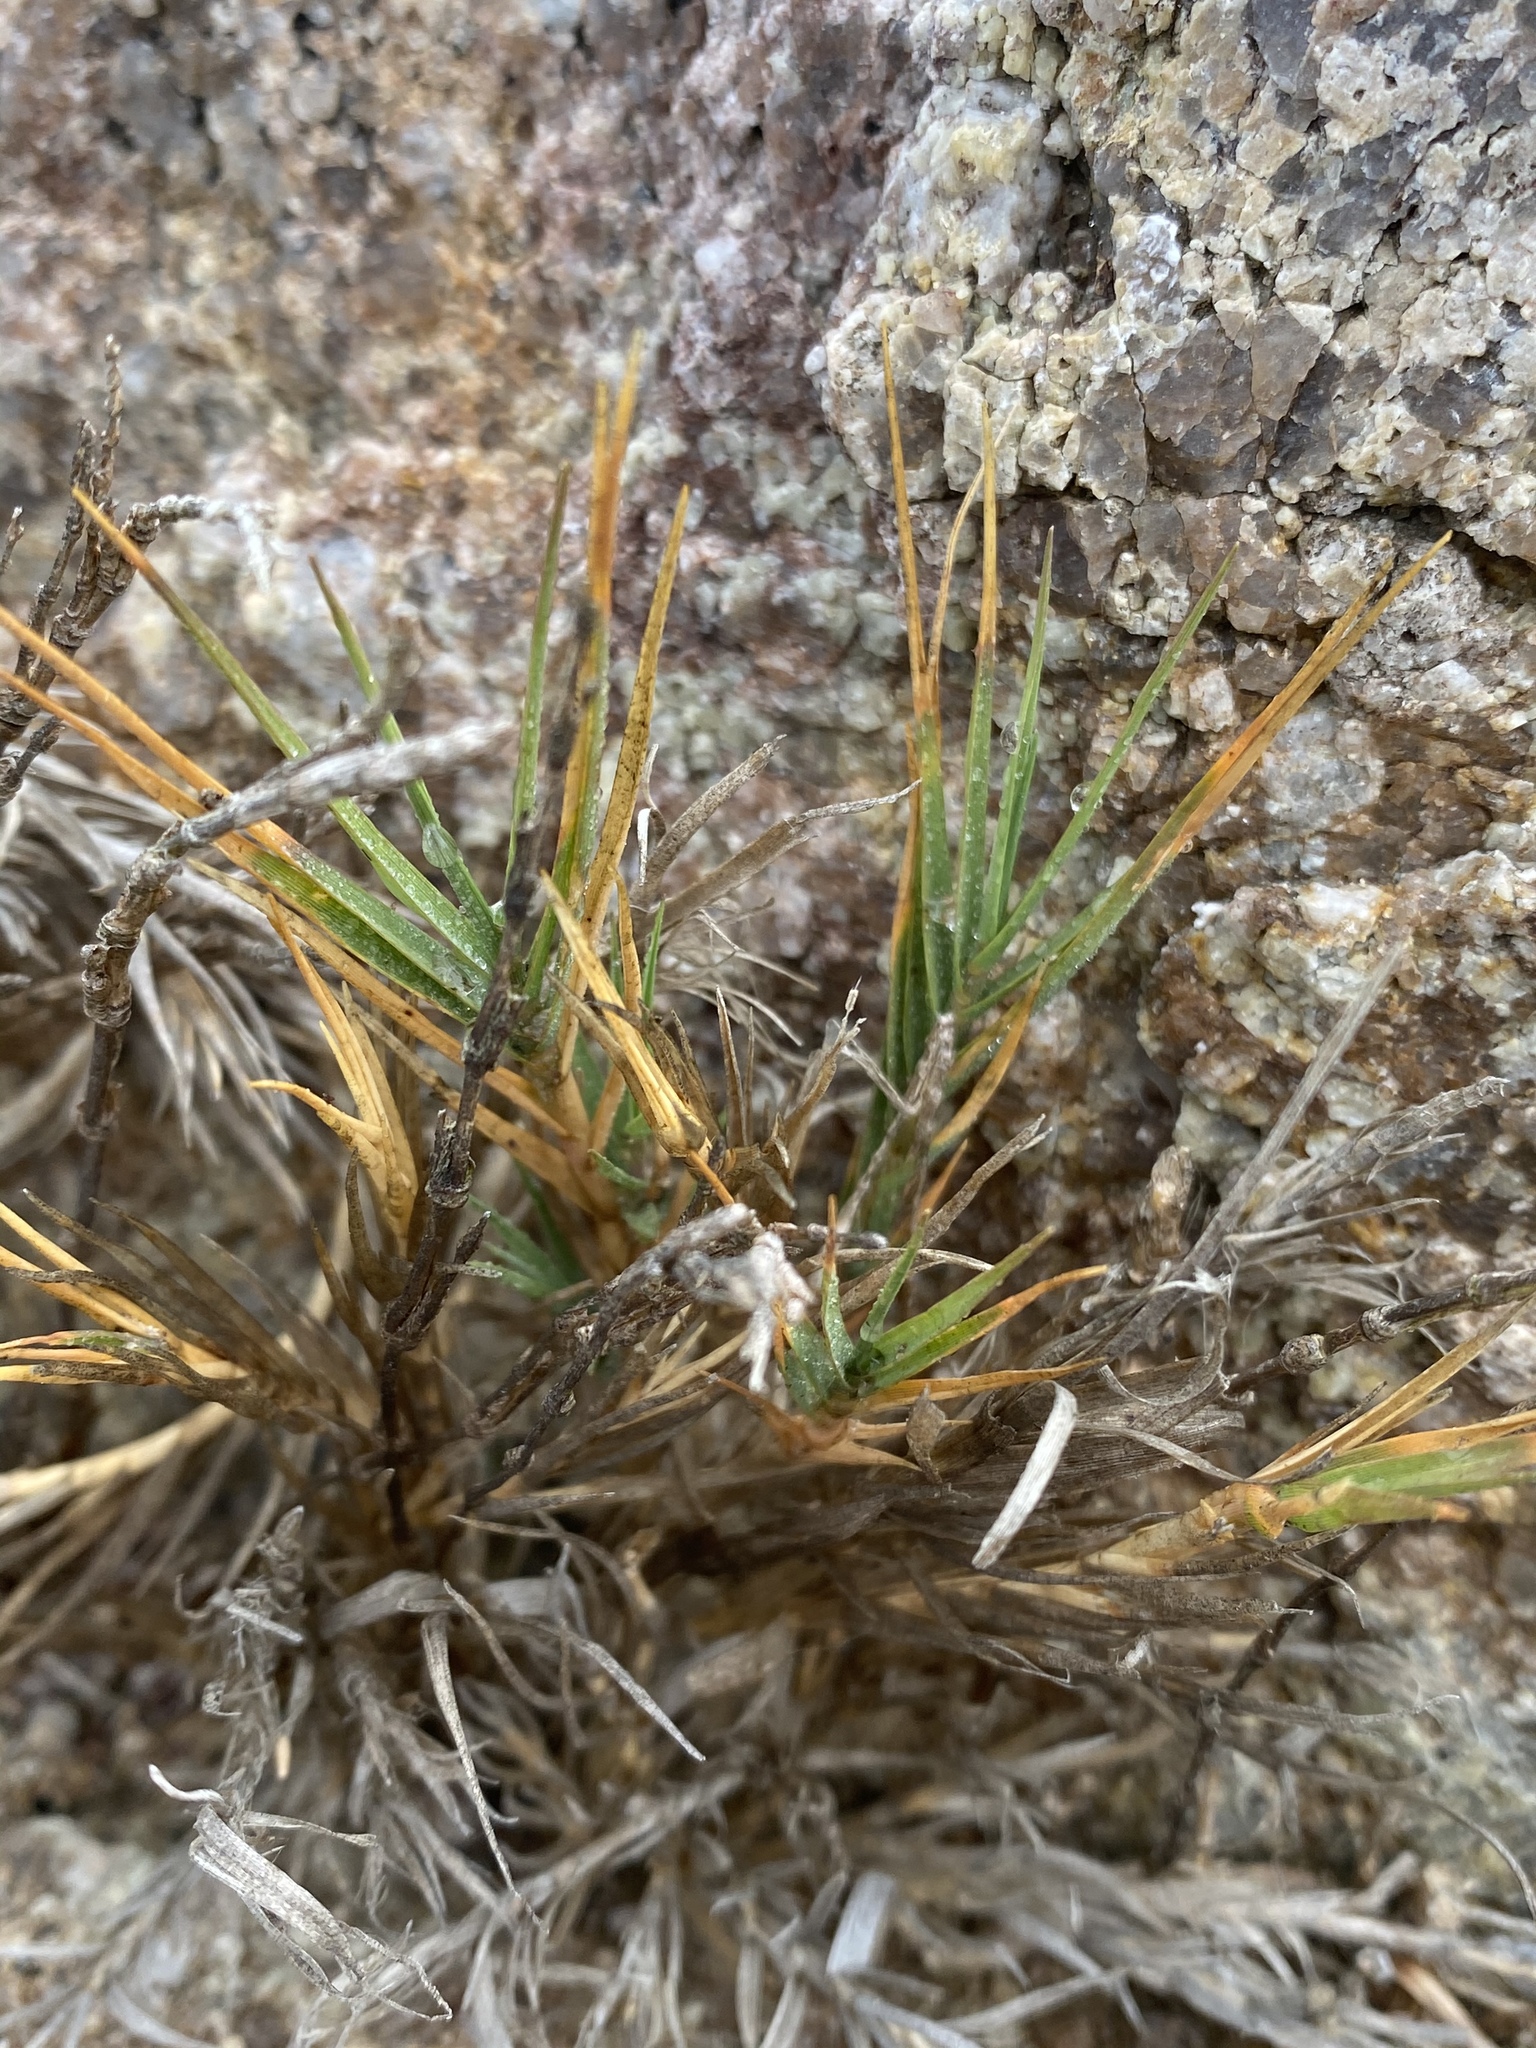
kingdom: Plantae
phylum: Tracheophyta
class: Liliopsida
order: Poales
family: Poaceae
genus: Distichlis
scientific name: Distichlis spicata
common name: Saltgrass
